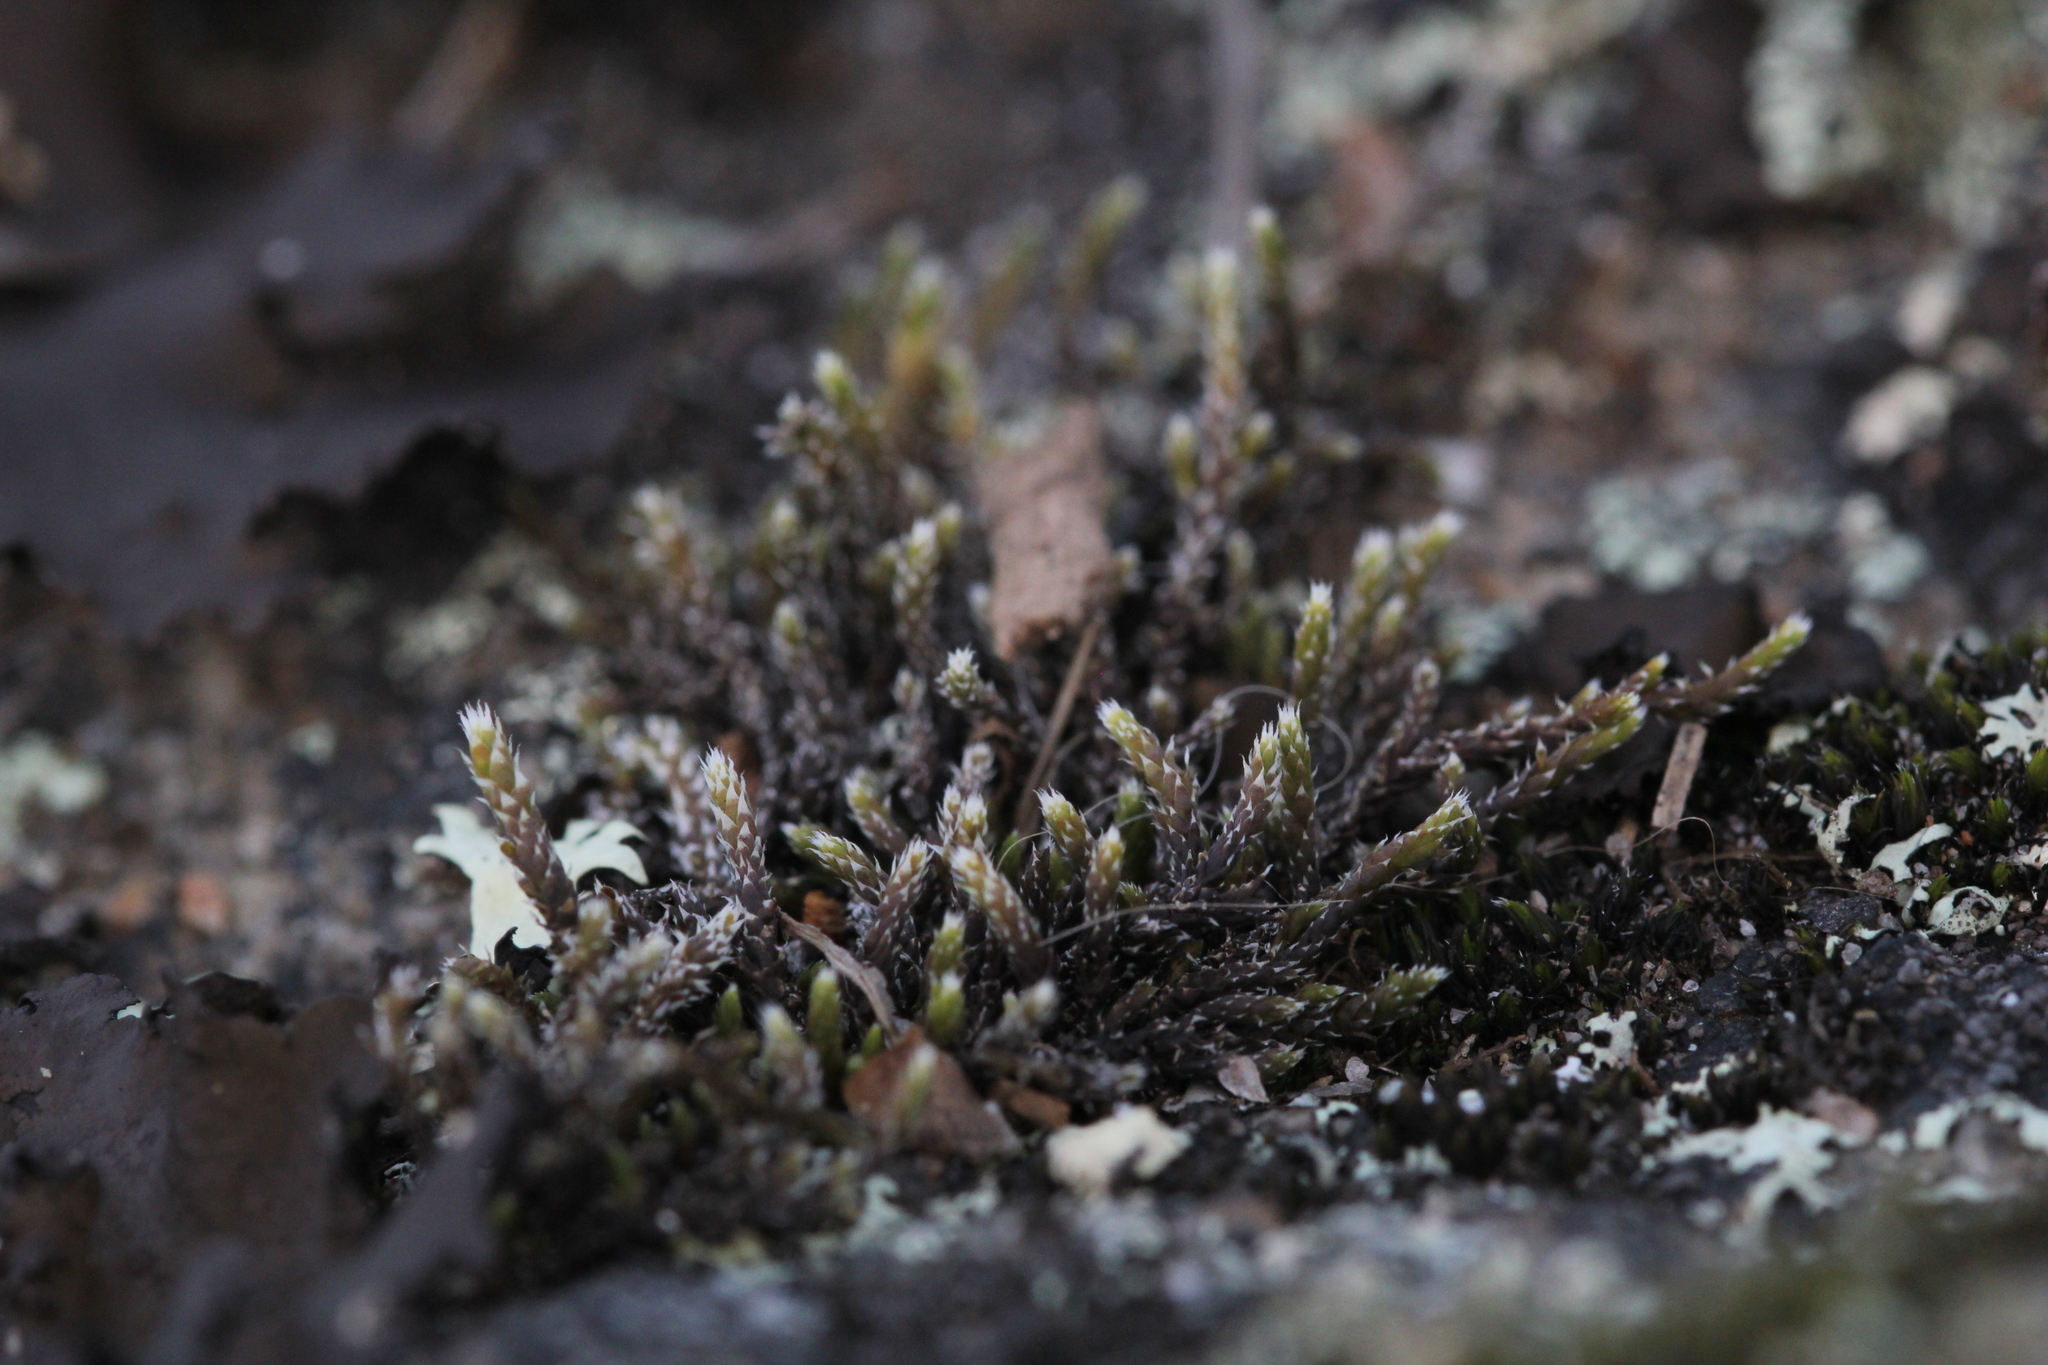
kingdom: Plantae
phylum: Bryophyta
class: Bryopsida
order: Hedwigiales
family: Hedwigiaceae
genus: Hedwigia
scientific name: Hedwigia ciliata
